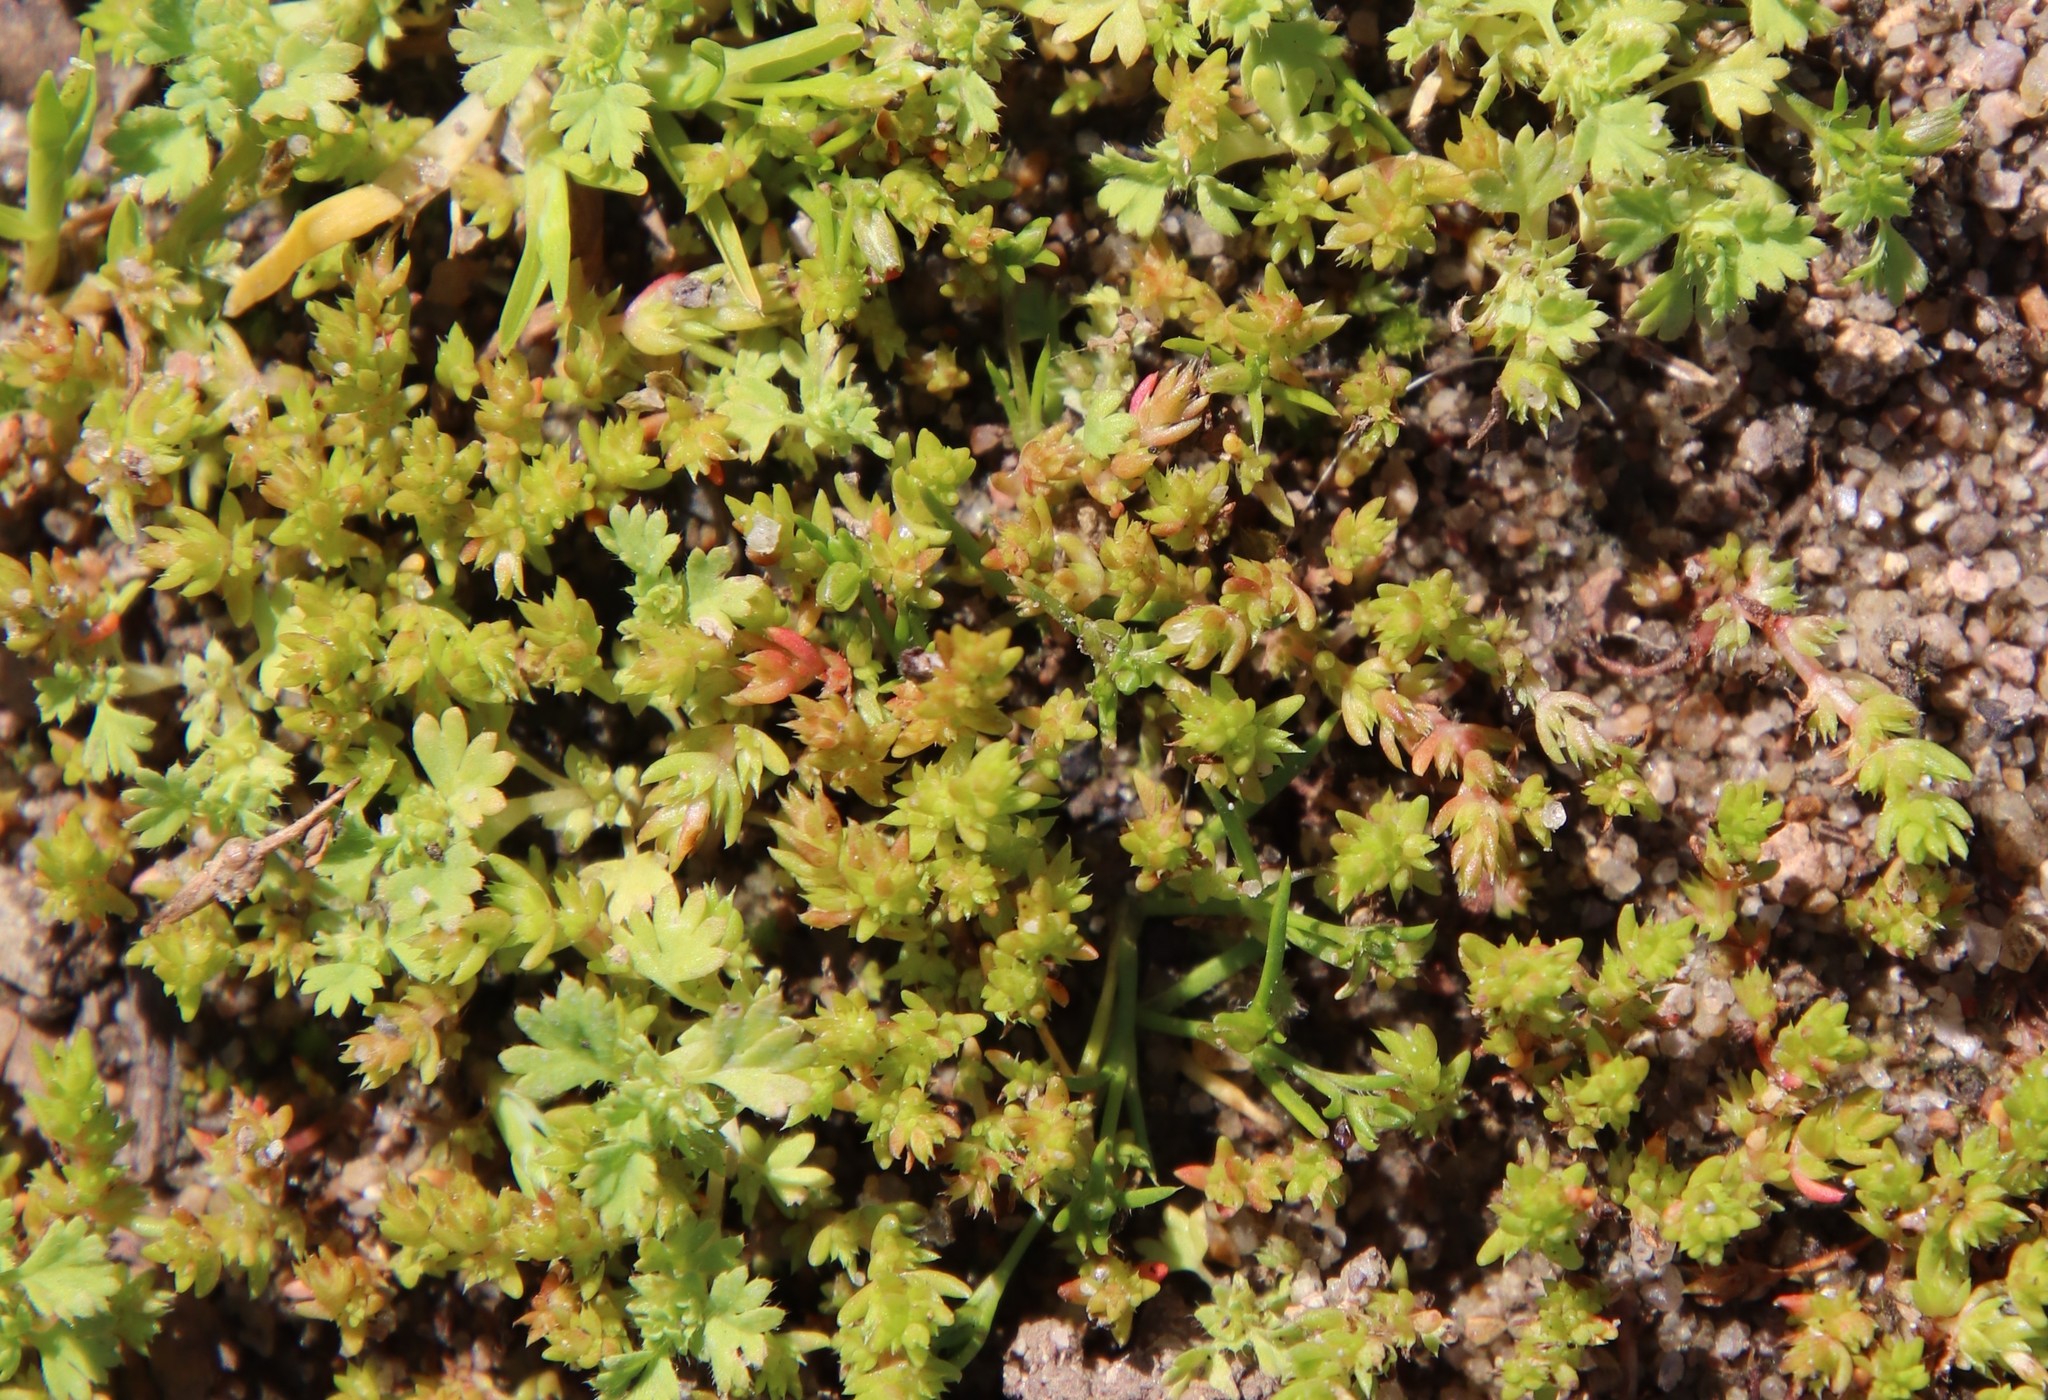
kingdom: Plantae
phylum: Tracheophyta
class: Magnoliopsida
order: Saxifragales
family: Crassulaceae
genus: Crassula
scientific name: Crassula tillaea
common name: Mossy stonecrop
